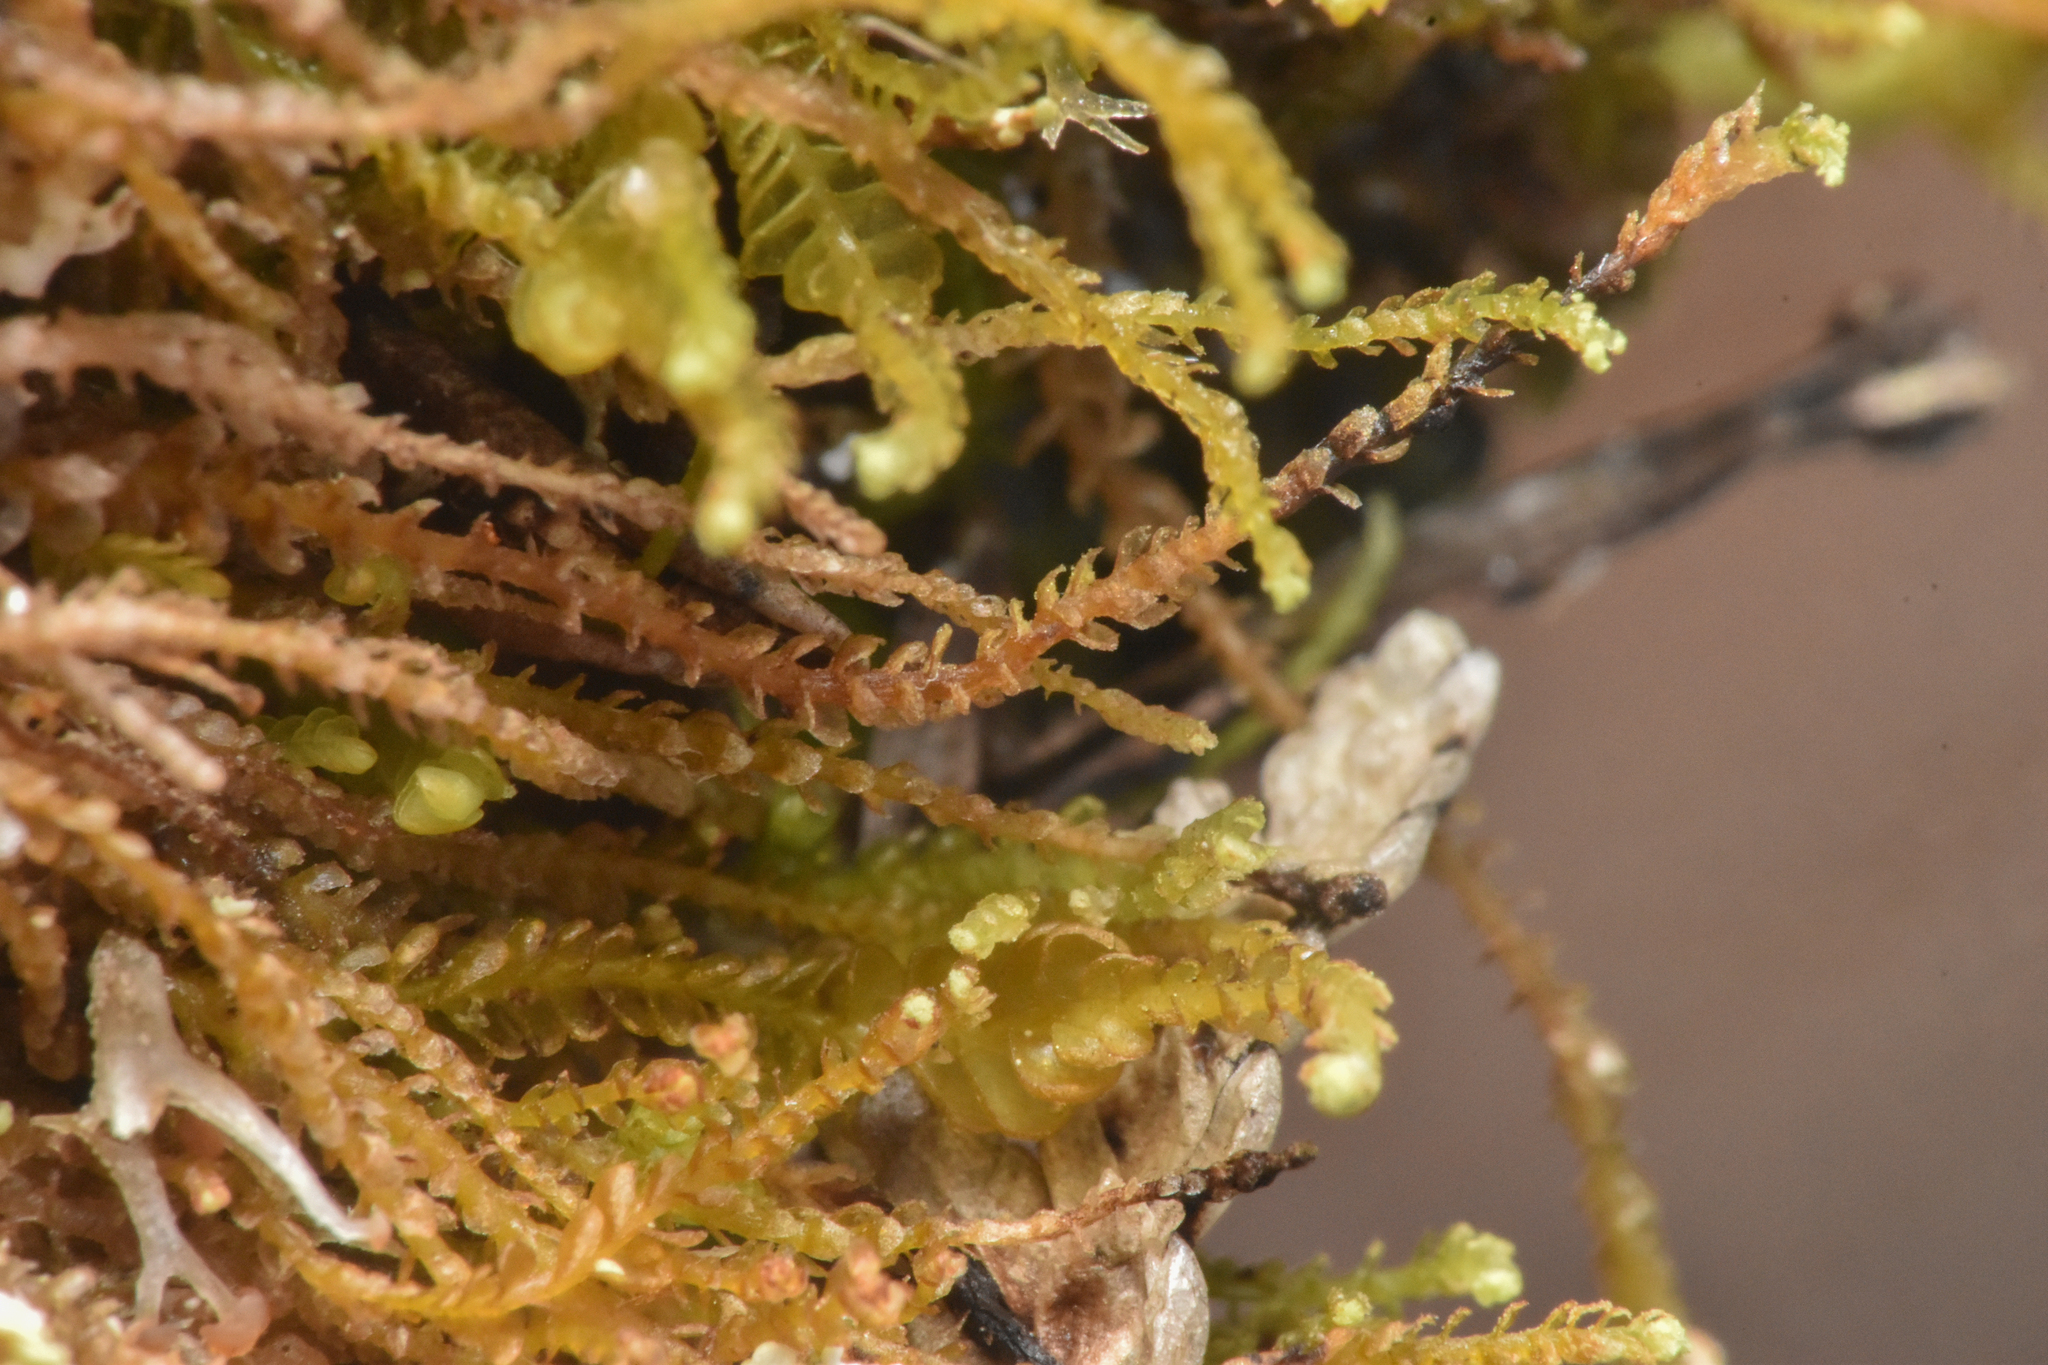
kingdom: Plantae
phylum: Marchantiophyta
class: Jungermanniopsida
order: Jungermanniales
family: Anastrophyllaceae
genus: Sphenolobus
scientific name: Sphenolobus minutus
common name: Comb notchwort
